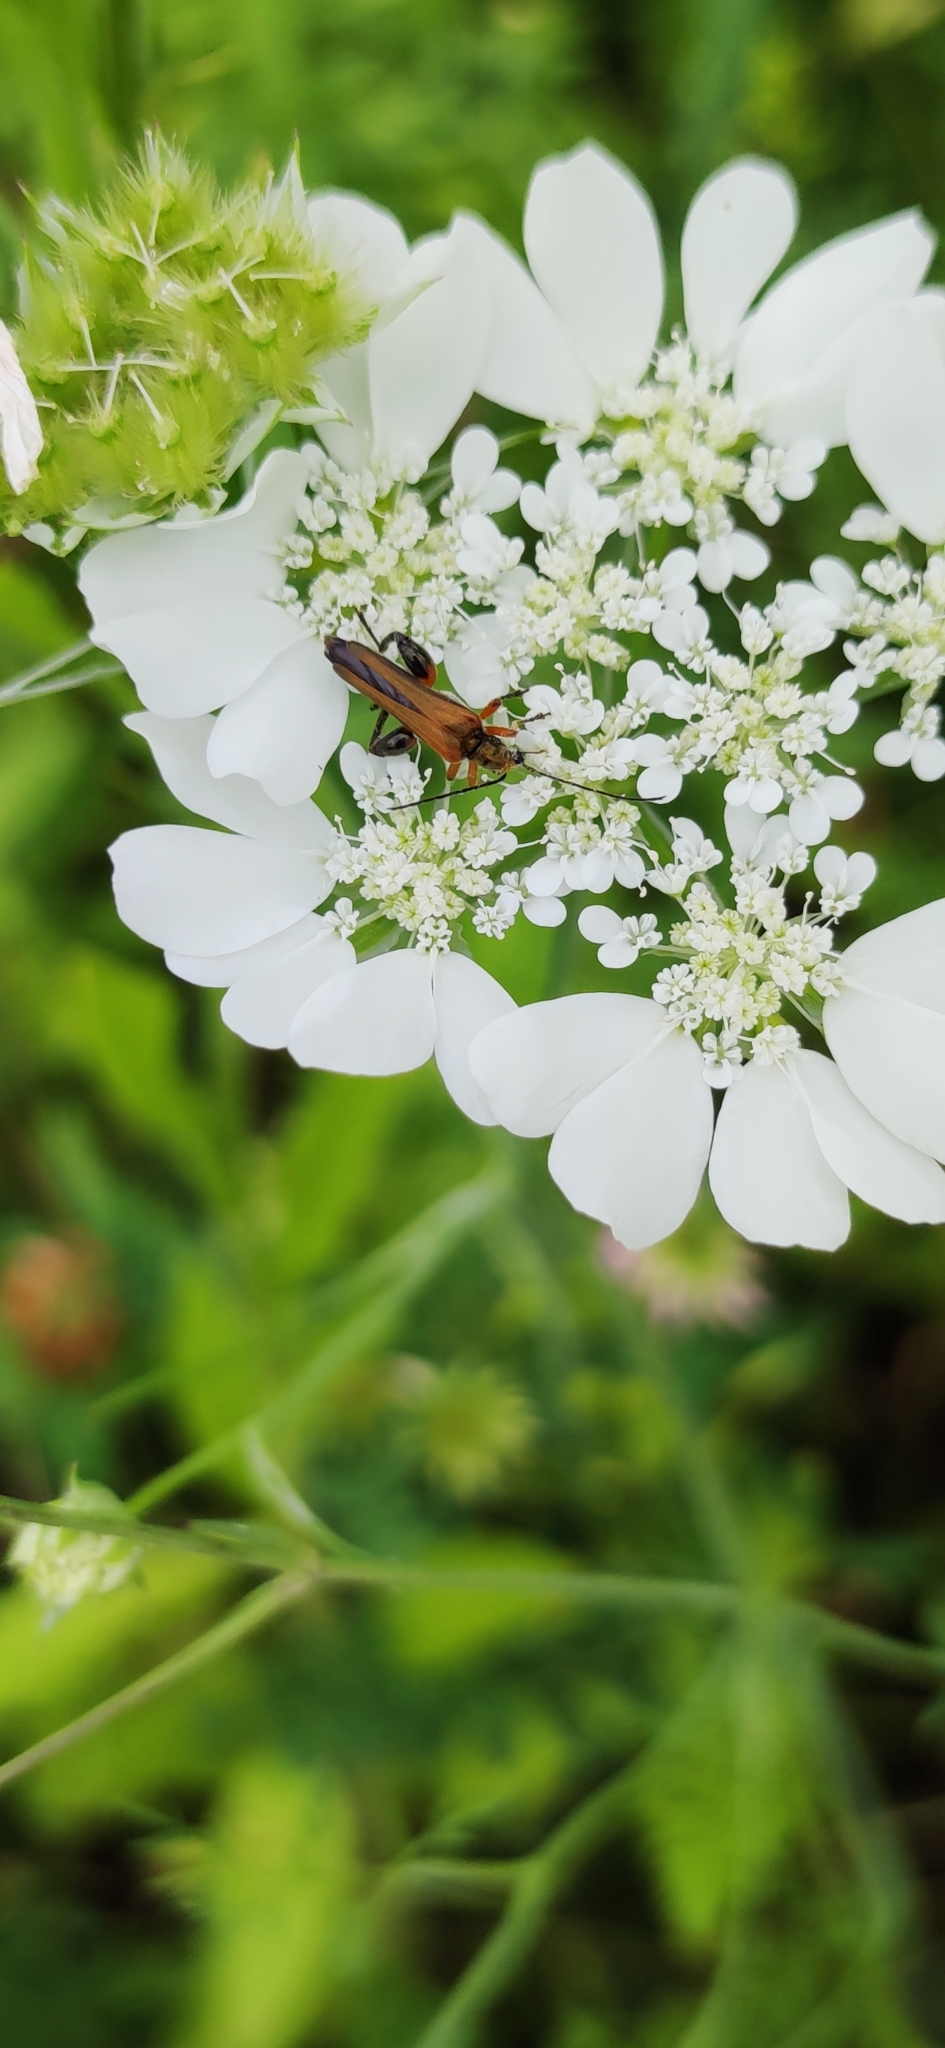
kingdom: Animalia
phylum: Arthropoda
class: Insecta
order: Coleoptera
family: Oedemeridae
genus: Oedemera
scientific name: Oedemera podagrariae
